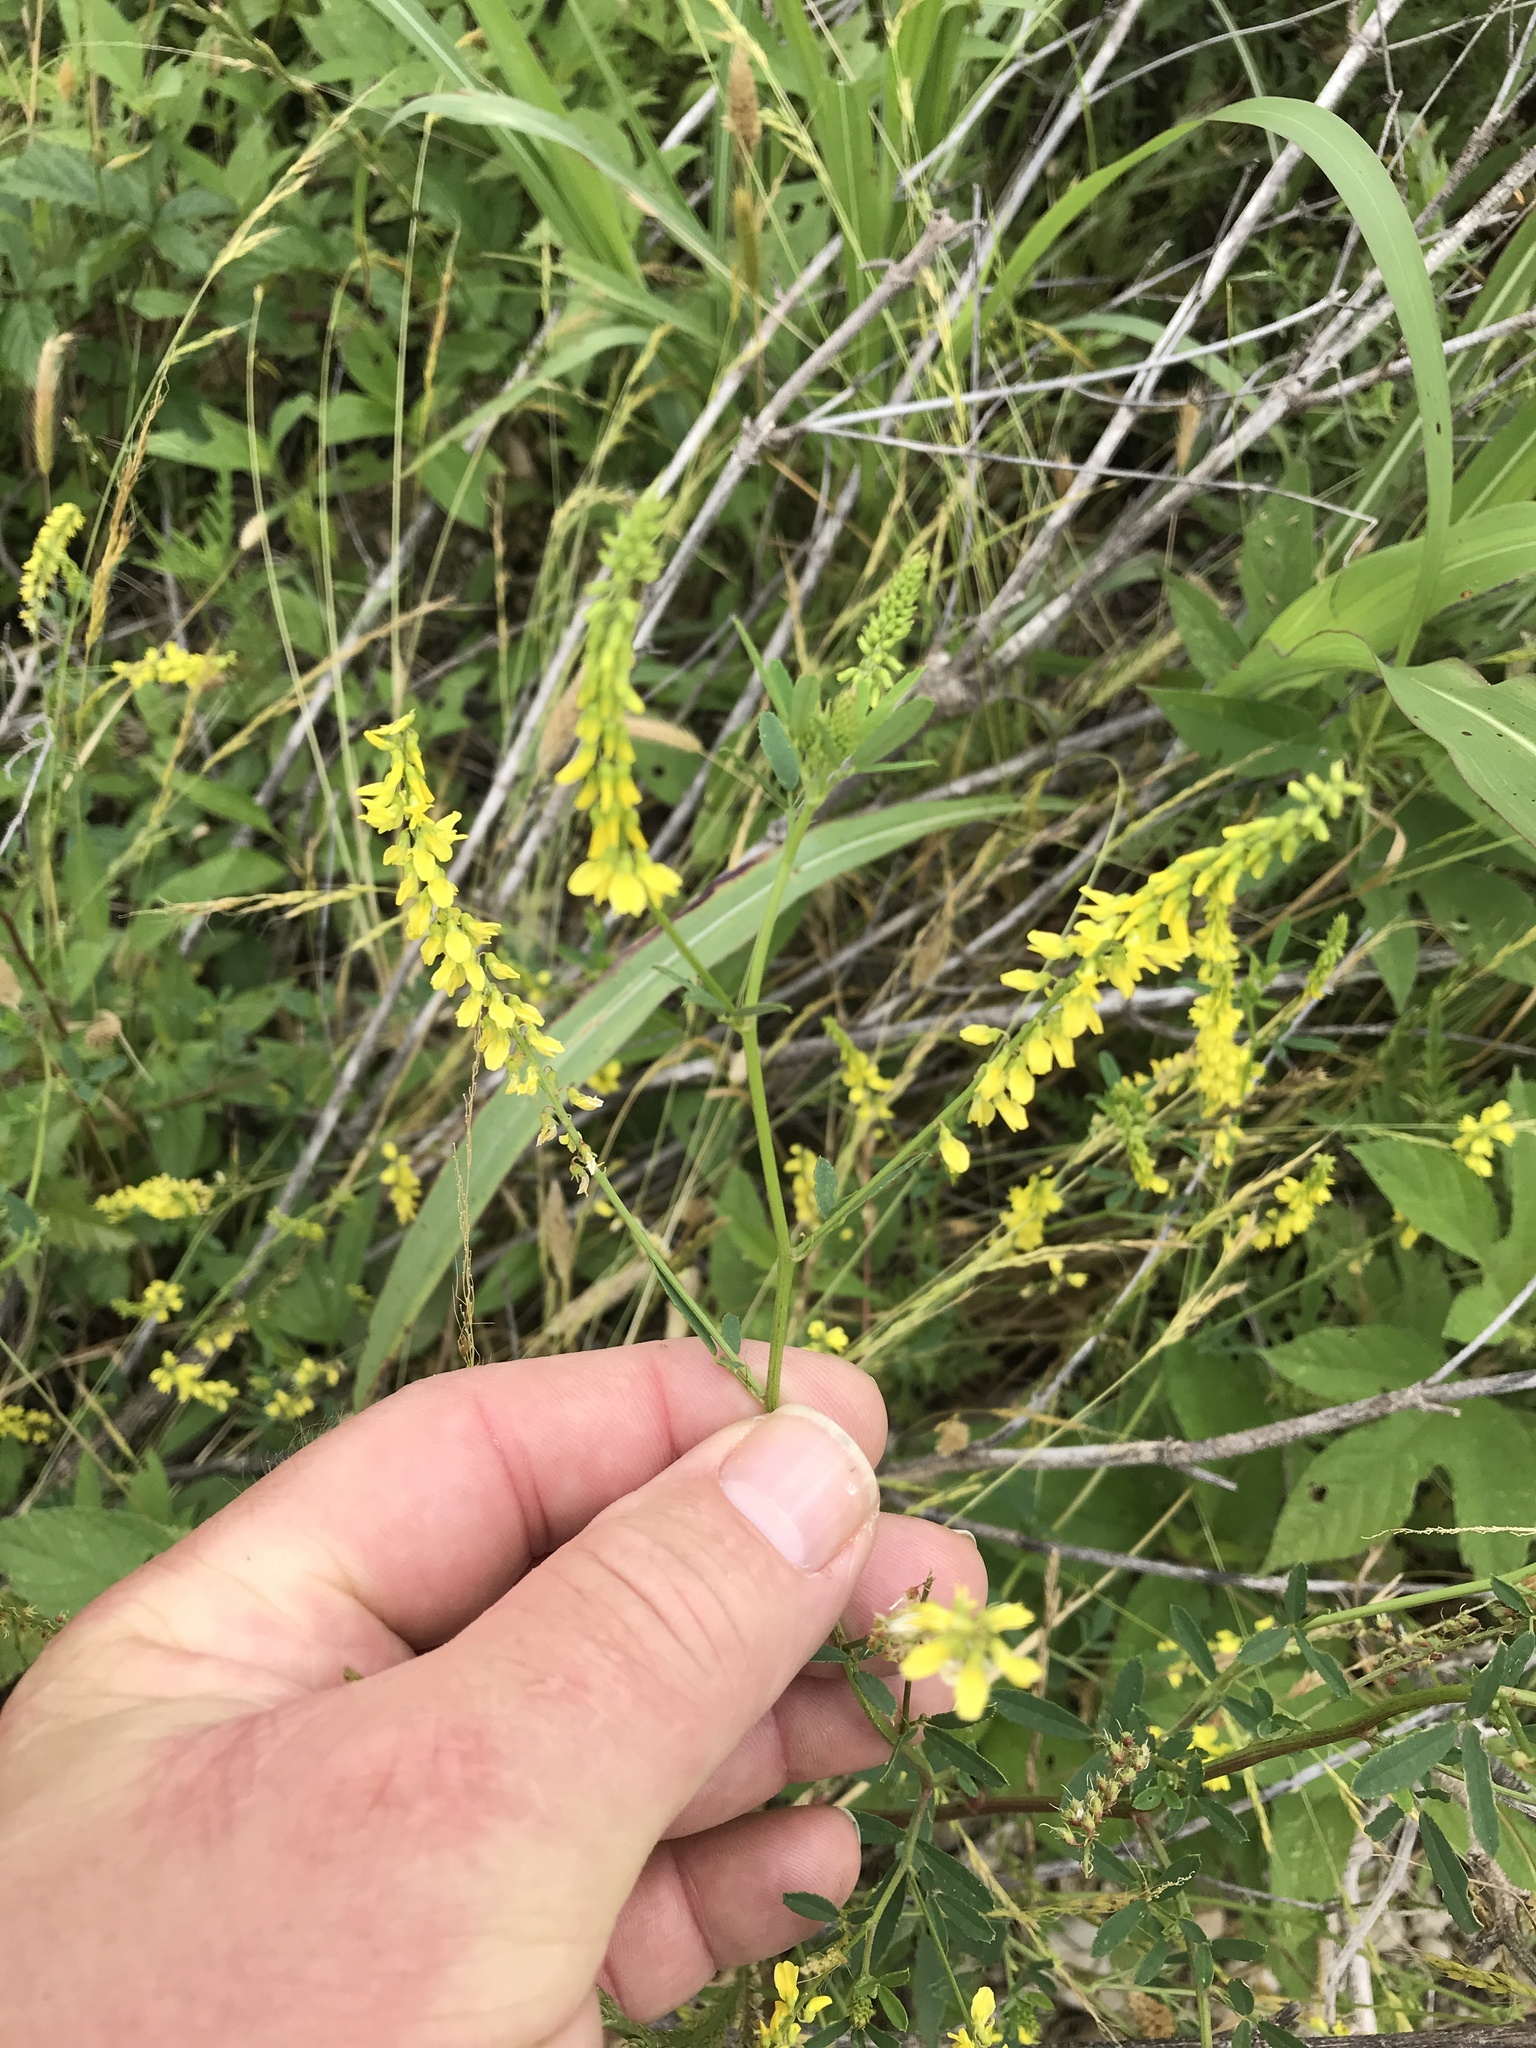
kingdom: Plantae
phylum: Tracheophyta
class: Magnoliopsida
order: Fabales
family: Fabaceae
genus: Melilotus
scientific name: Melilotus officinalis
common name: Sweetclover
